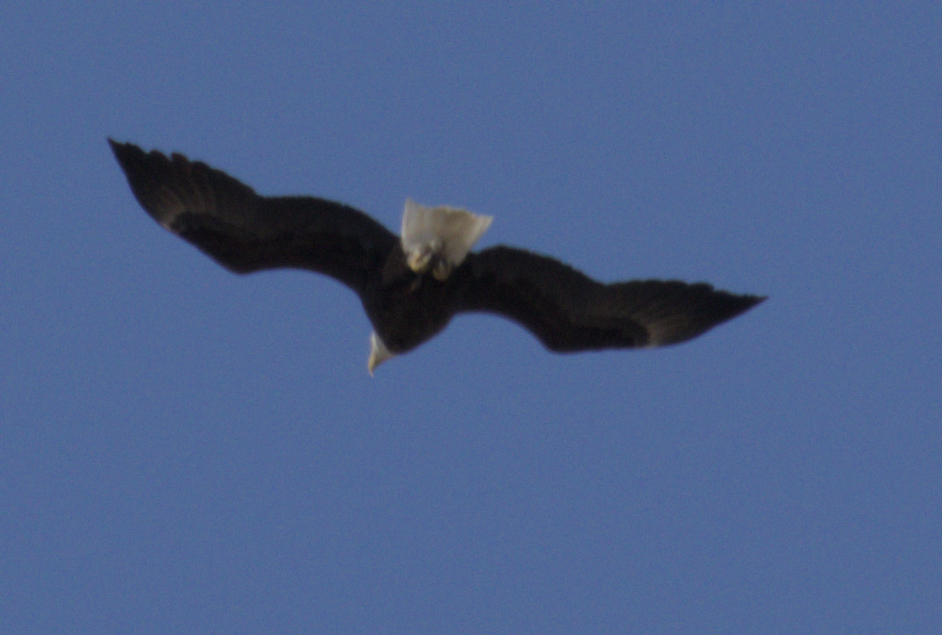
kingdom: Animalia
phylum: Chordata
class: Aves
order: Accipitriformes
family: Accipitridae
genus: Haliaeetus
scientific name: Haliaeetus leucocephalus
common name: Bald eagle
